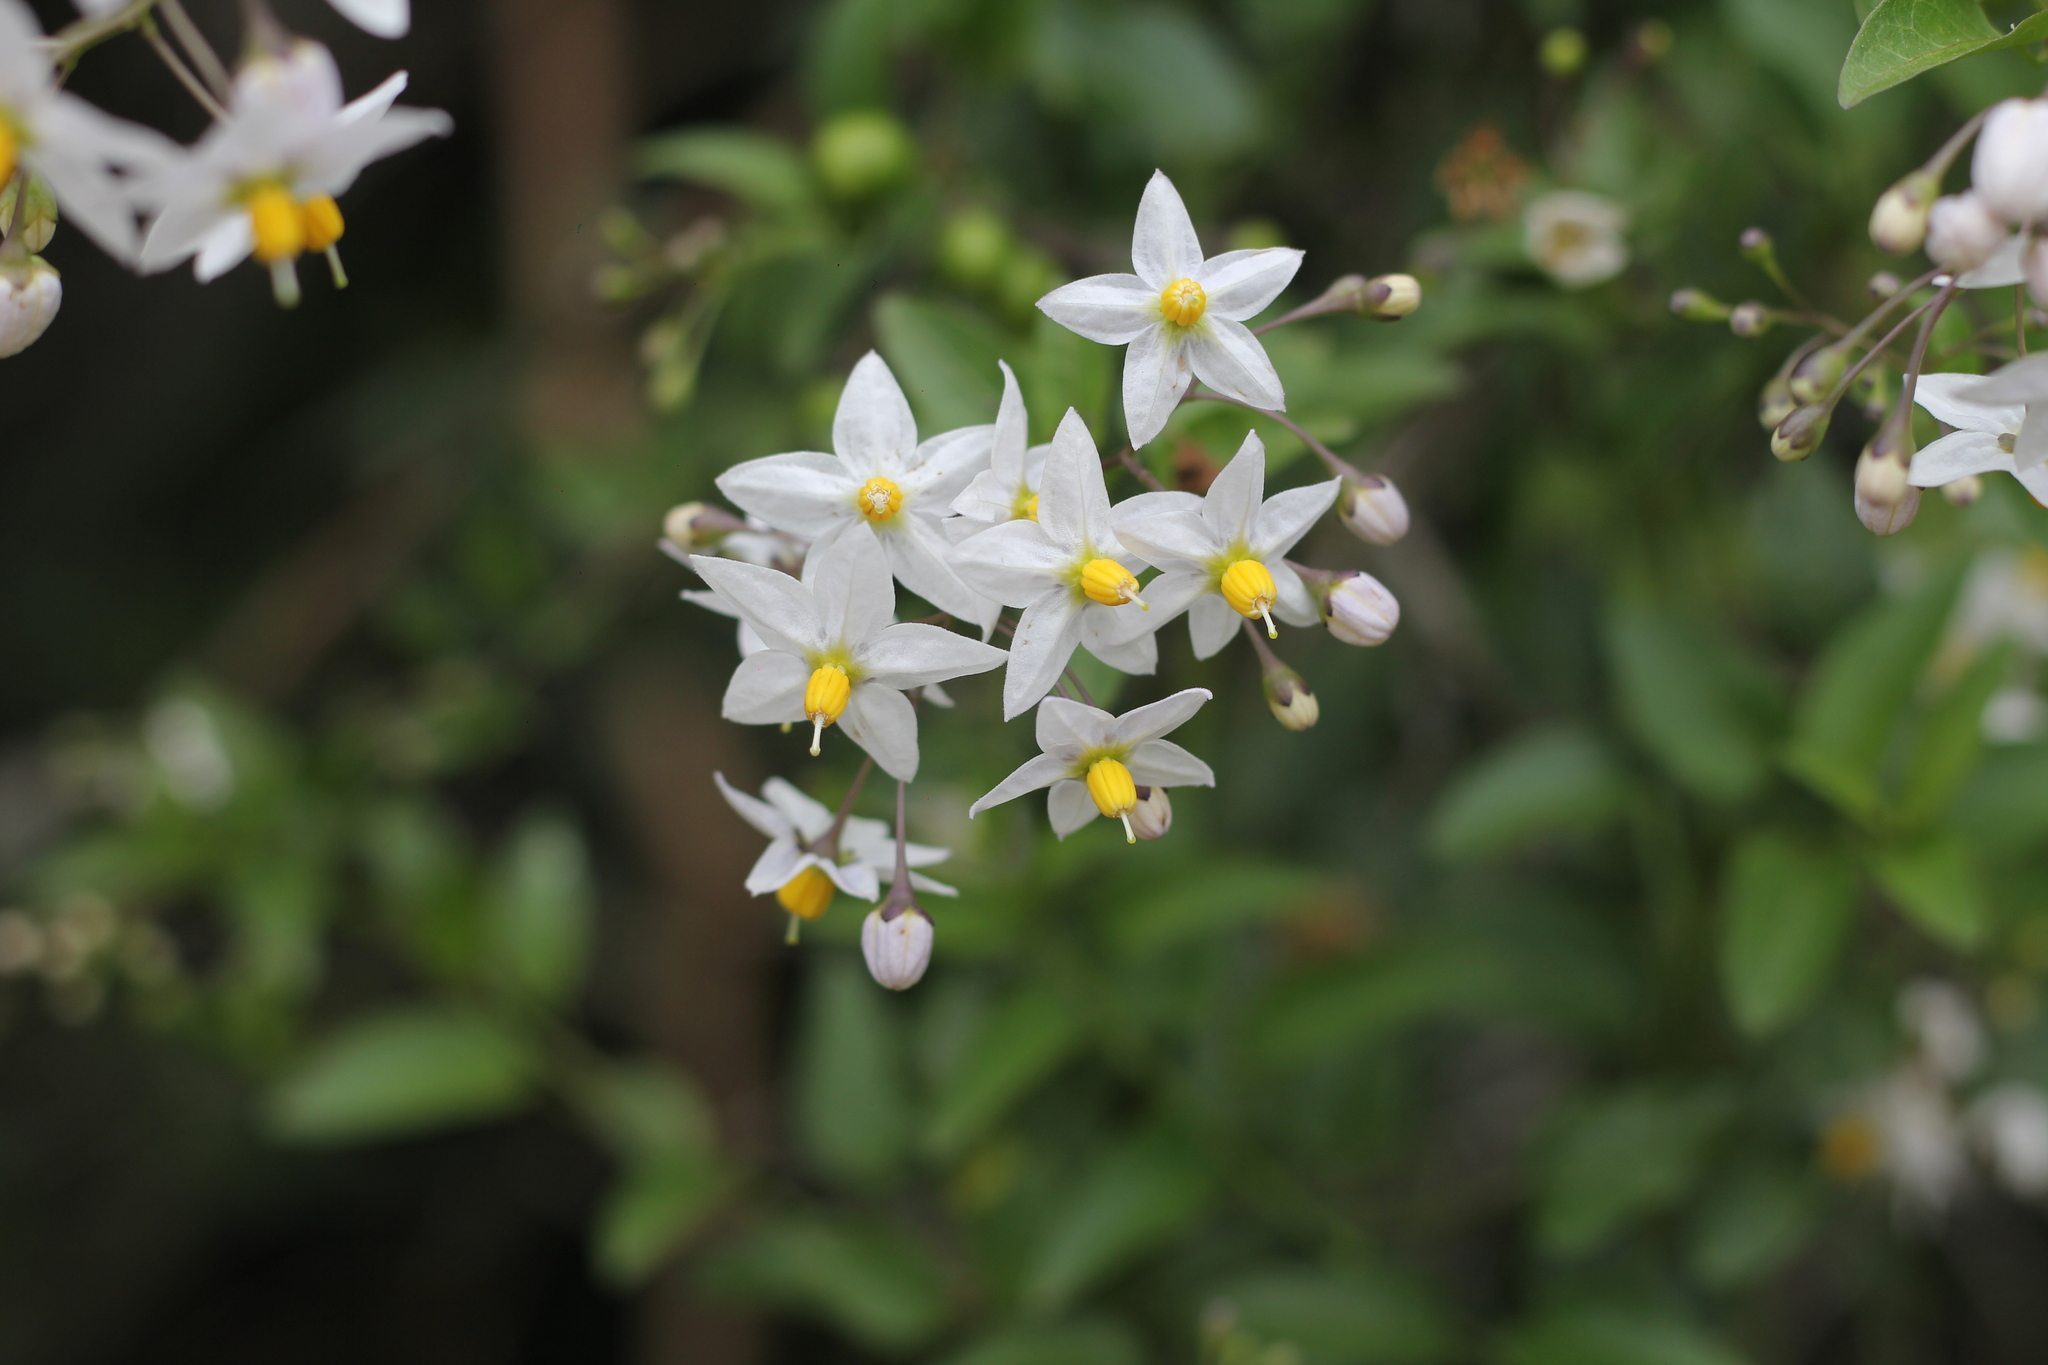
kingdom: Plantae
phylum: Tracheophyta
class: Magnoliopsida
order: Solanales
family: Solanaceae
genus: Solanum
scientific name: Solanum laxum
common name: Nightshade
